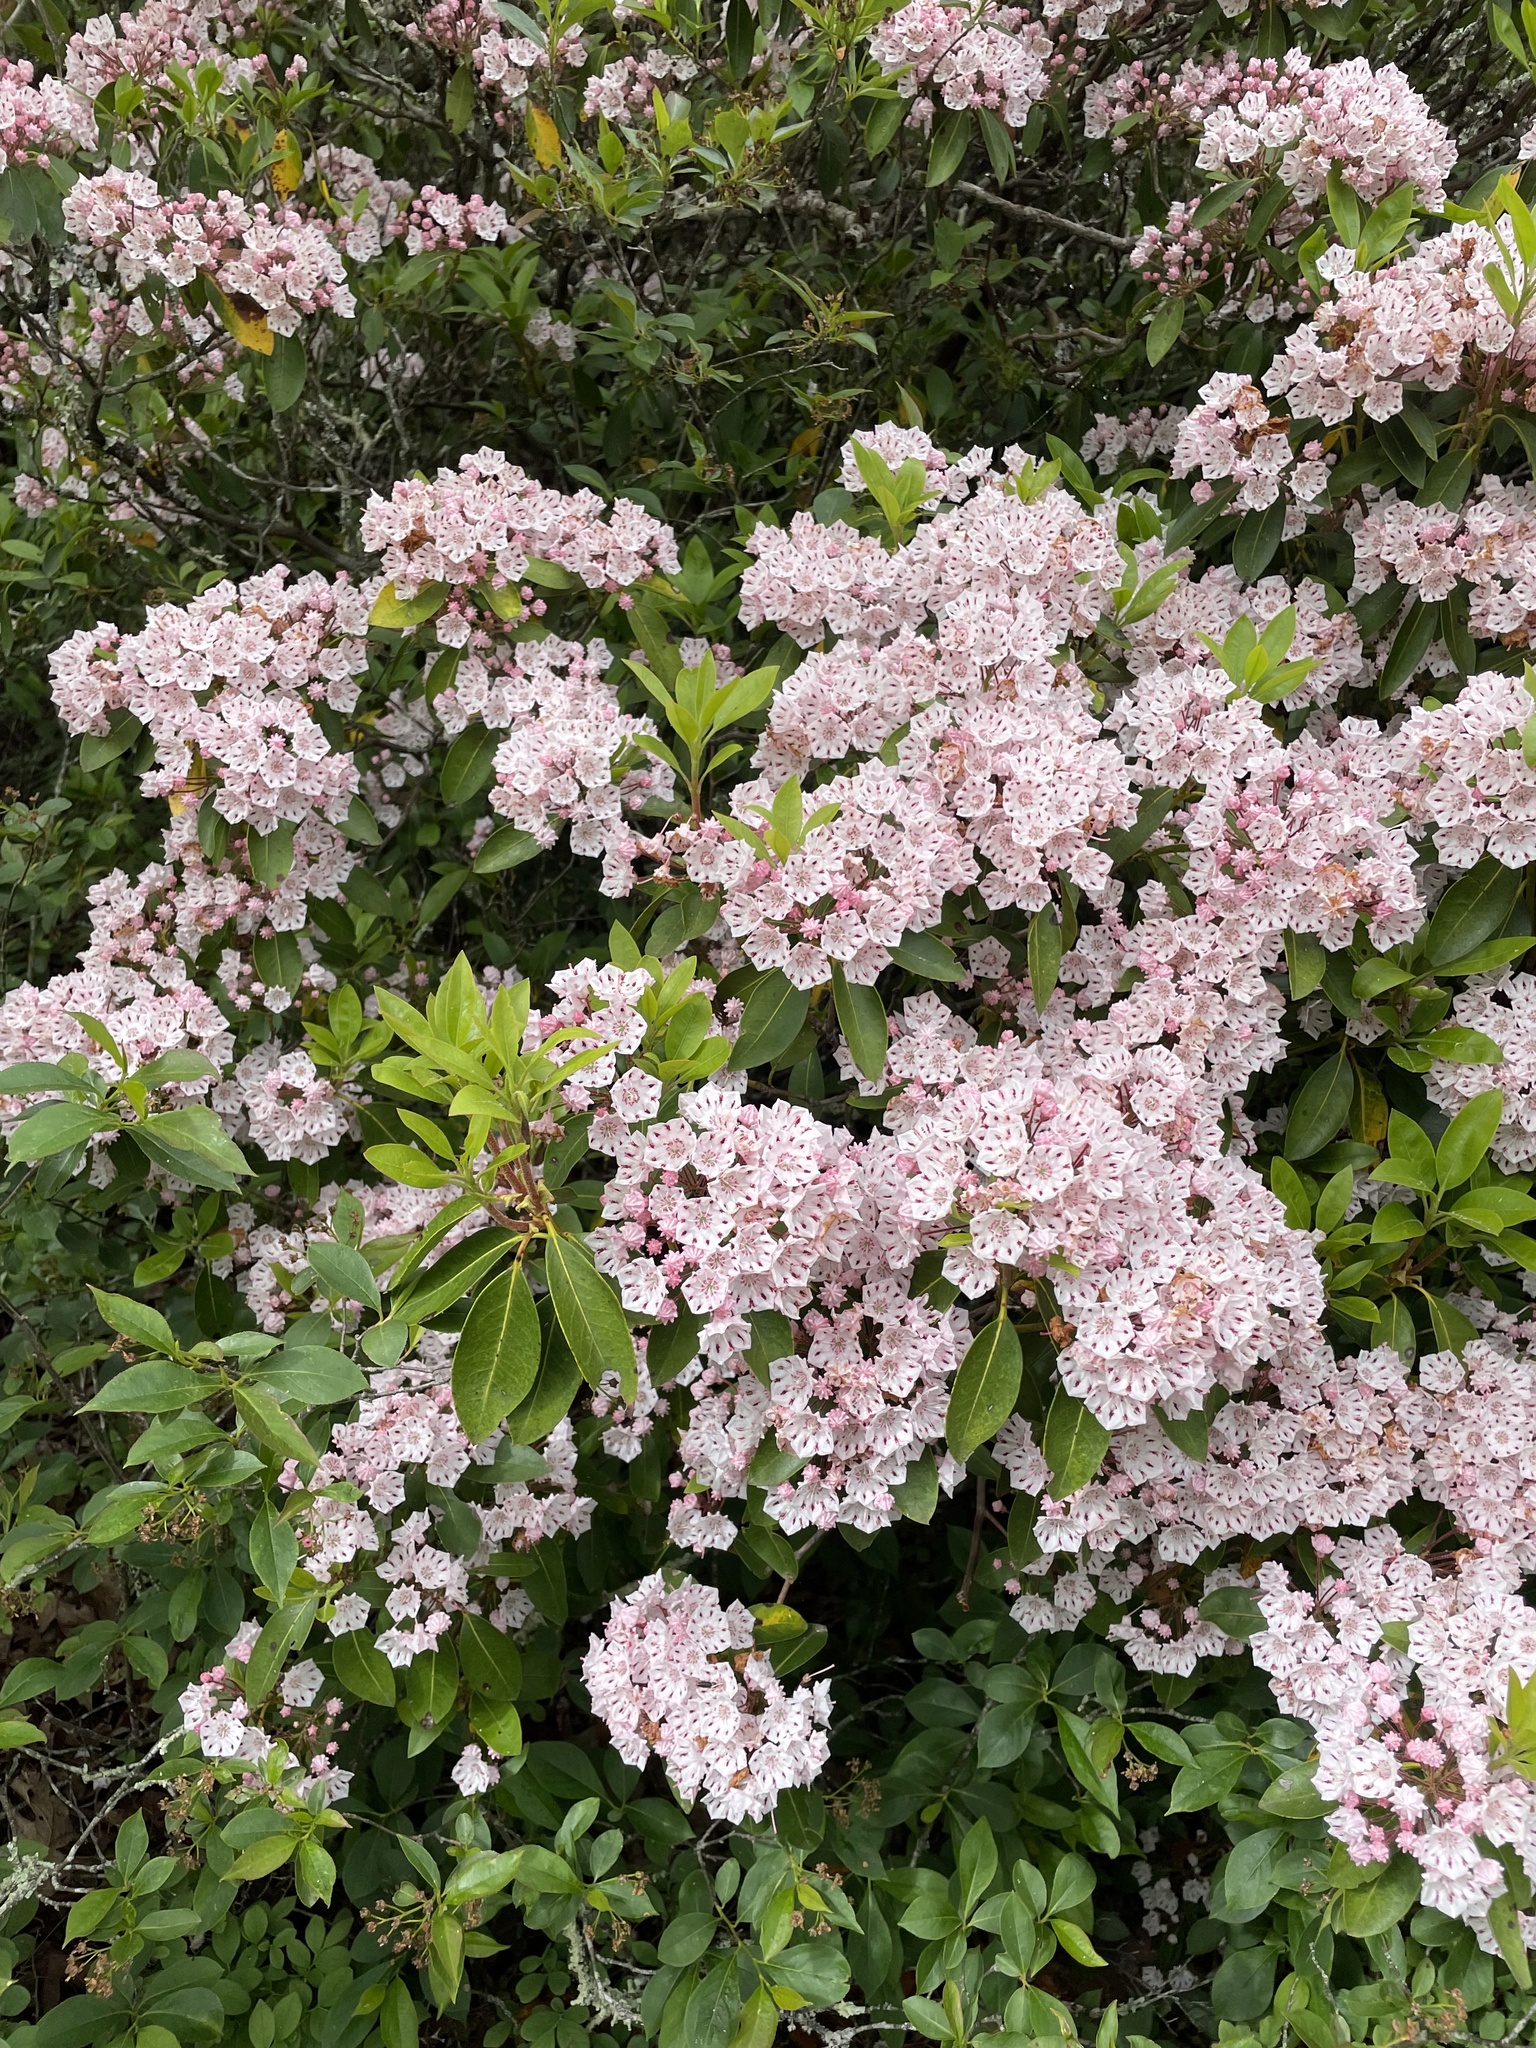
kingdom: Plantae
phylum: Tracheophyta
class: Magnoliopsida
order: Ericales
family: Ericaceae
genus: Kalmia
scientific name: Kalmia latifolia
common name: Mountain-laurel
